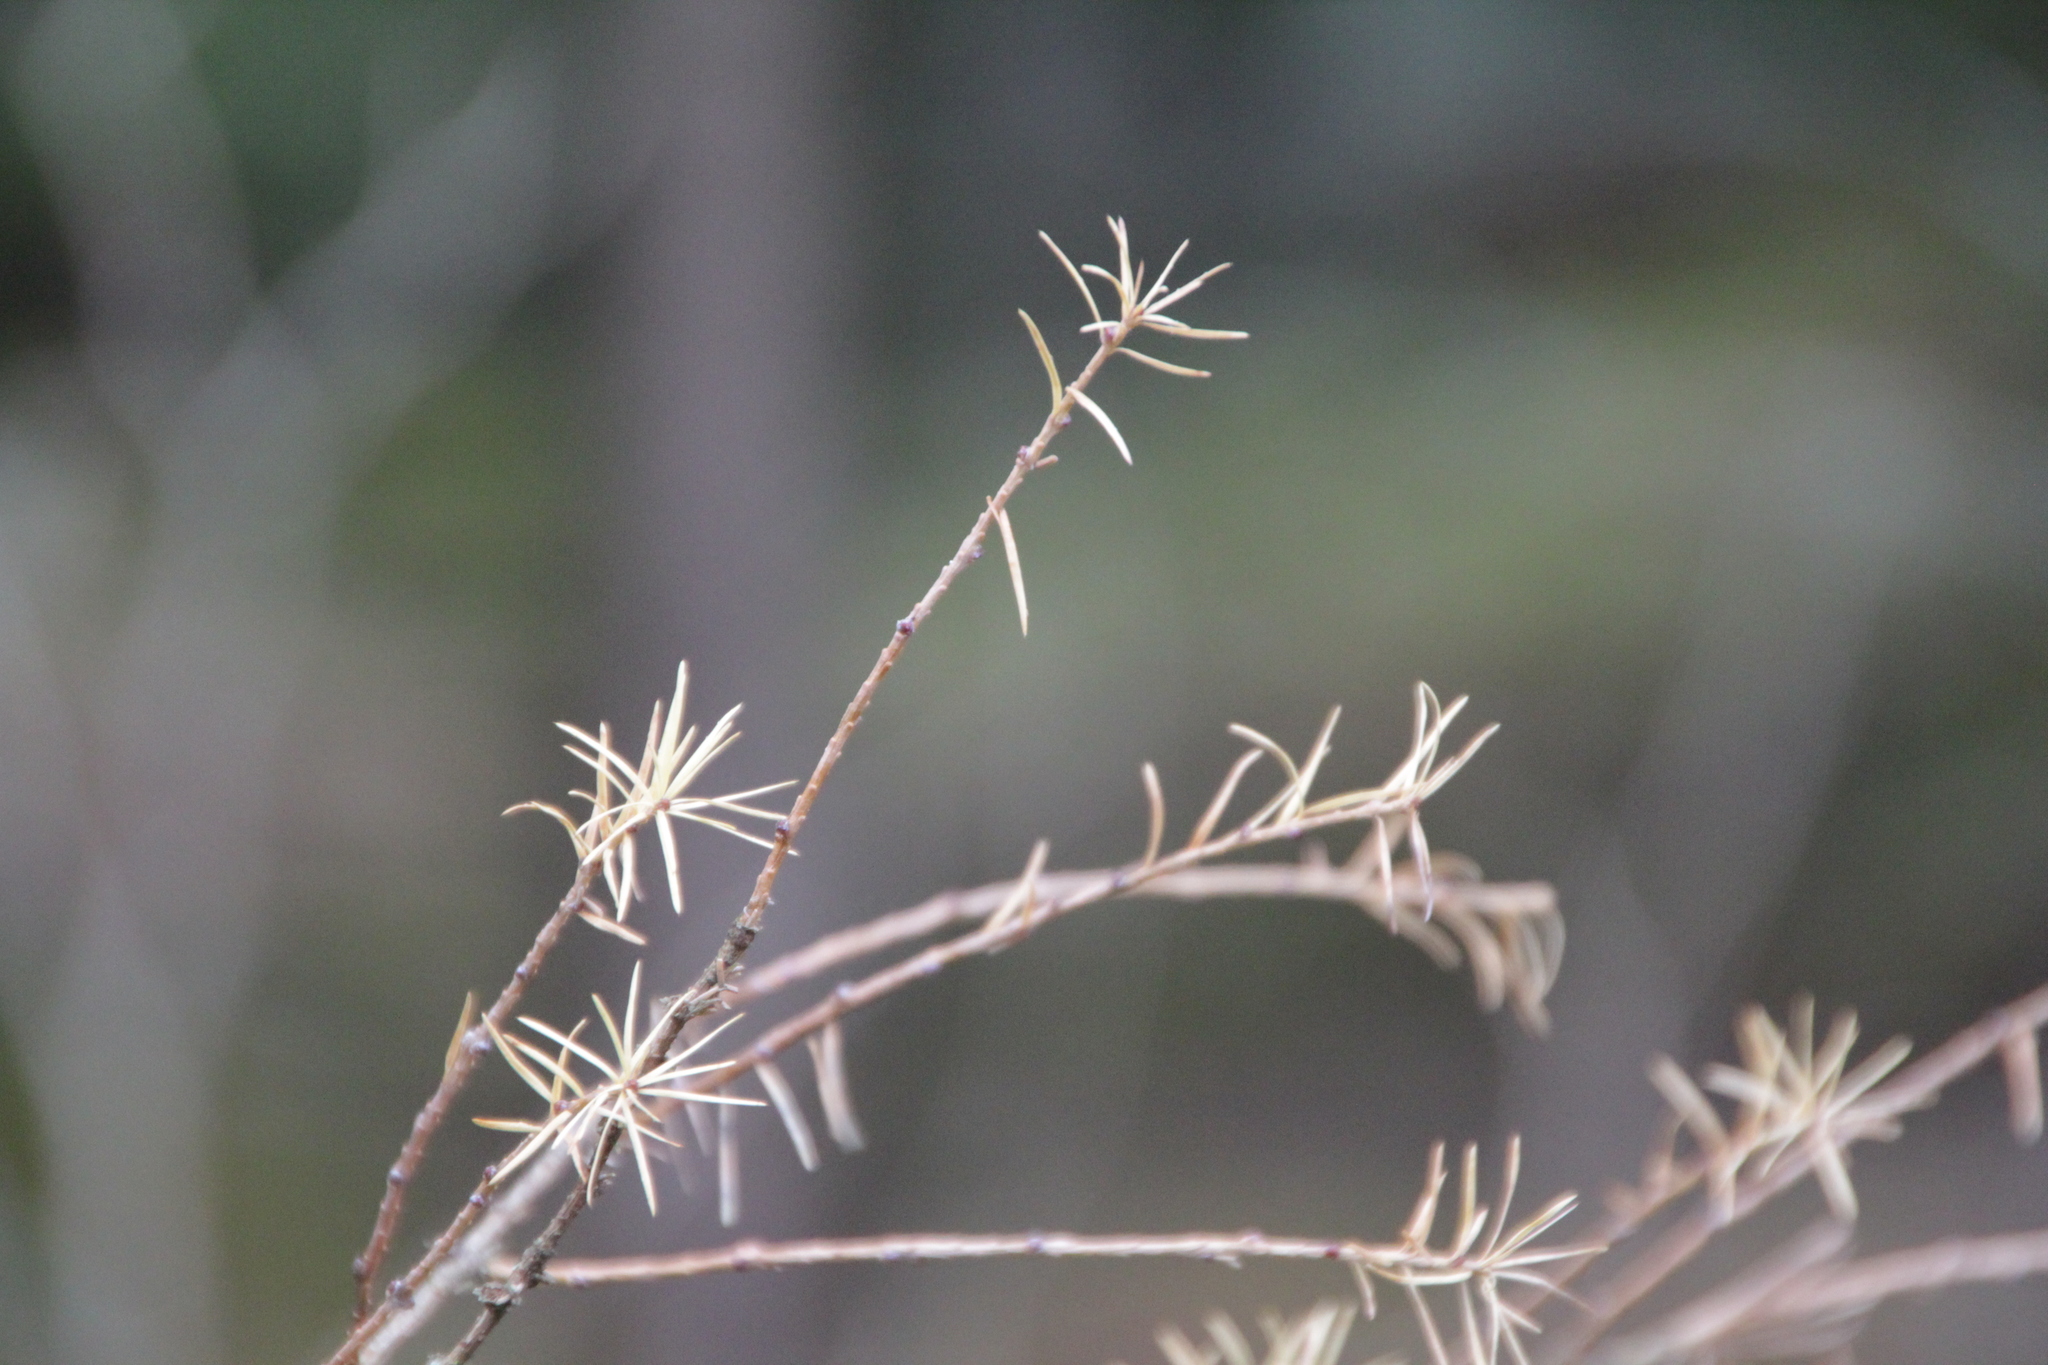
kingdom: Plantae
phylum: Tracheophyta
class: Pinopsida
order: Pinales
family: Pinaceae
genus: Larix
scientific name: Larix decidua
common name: European larch
